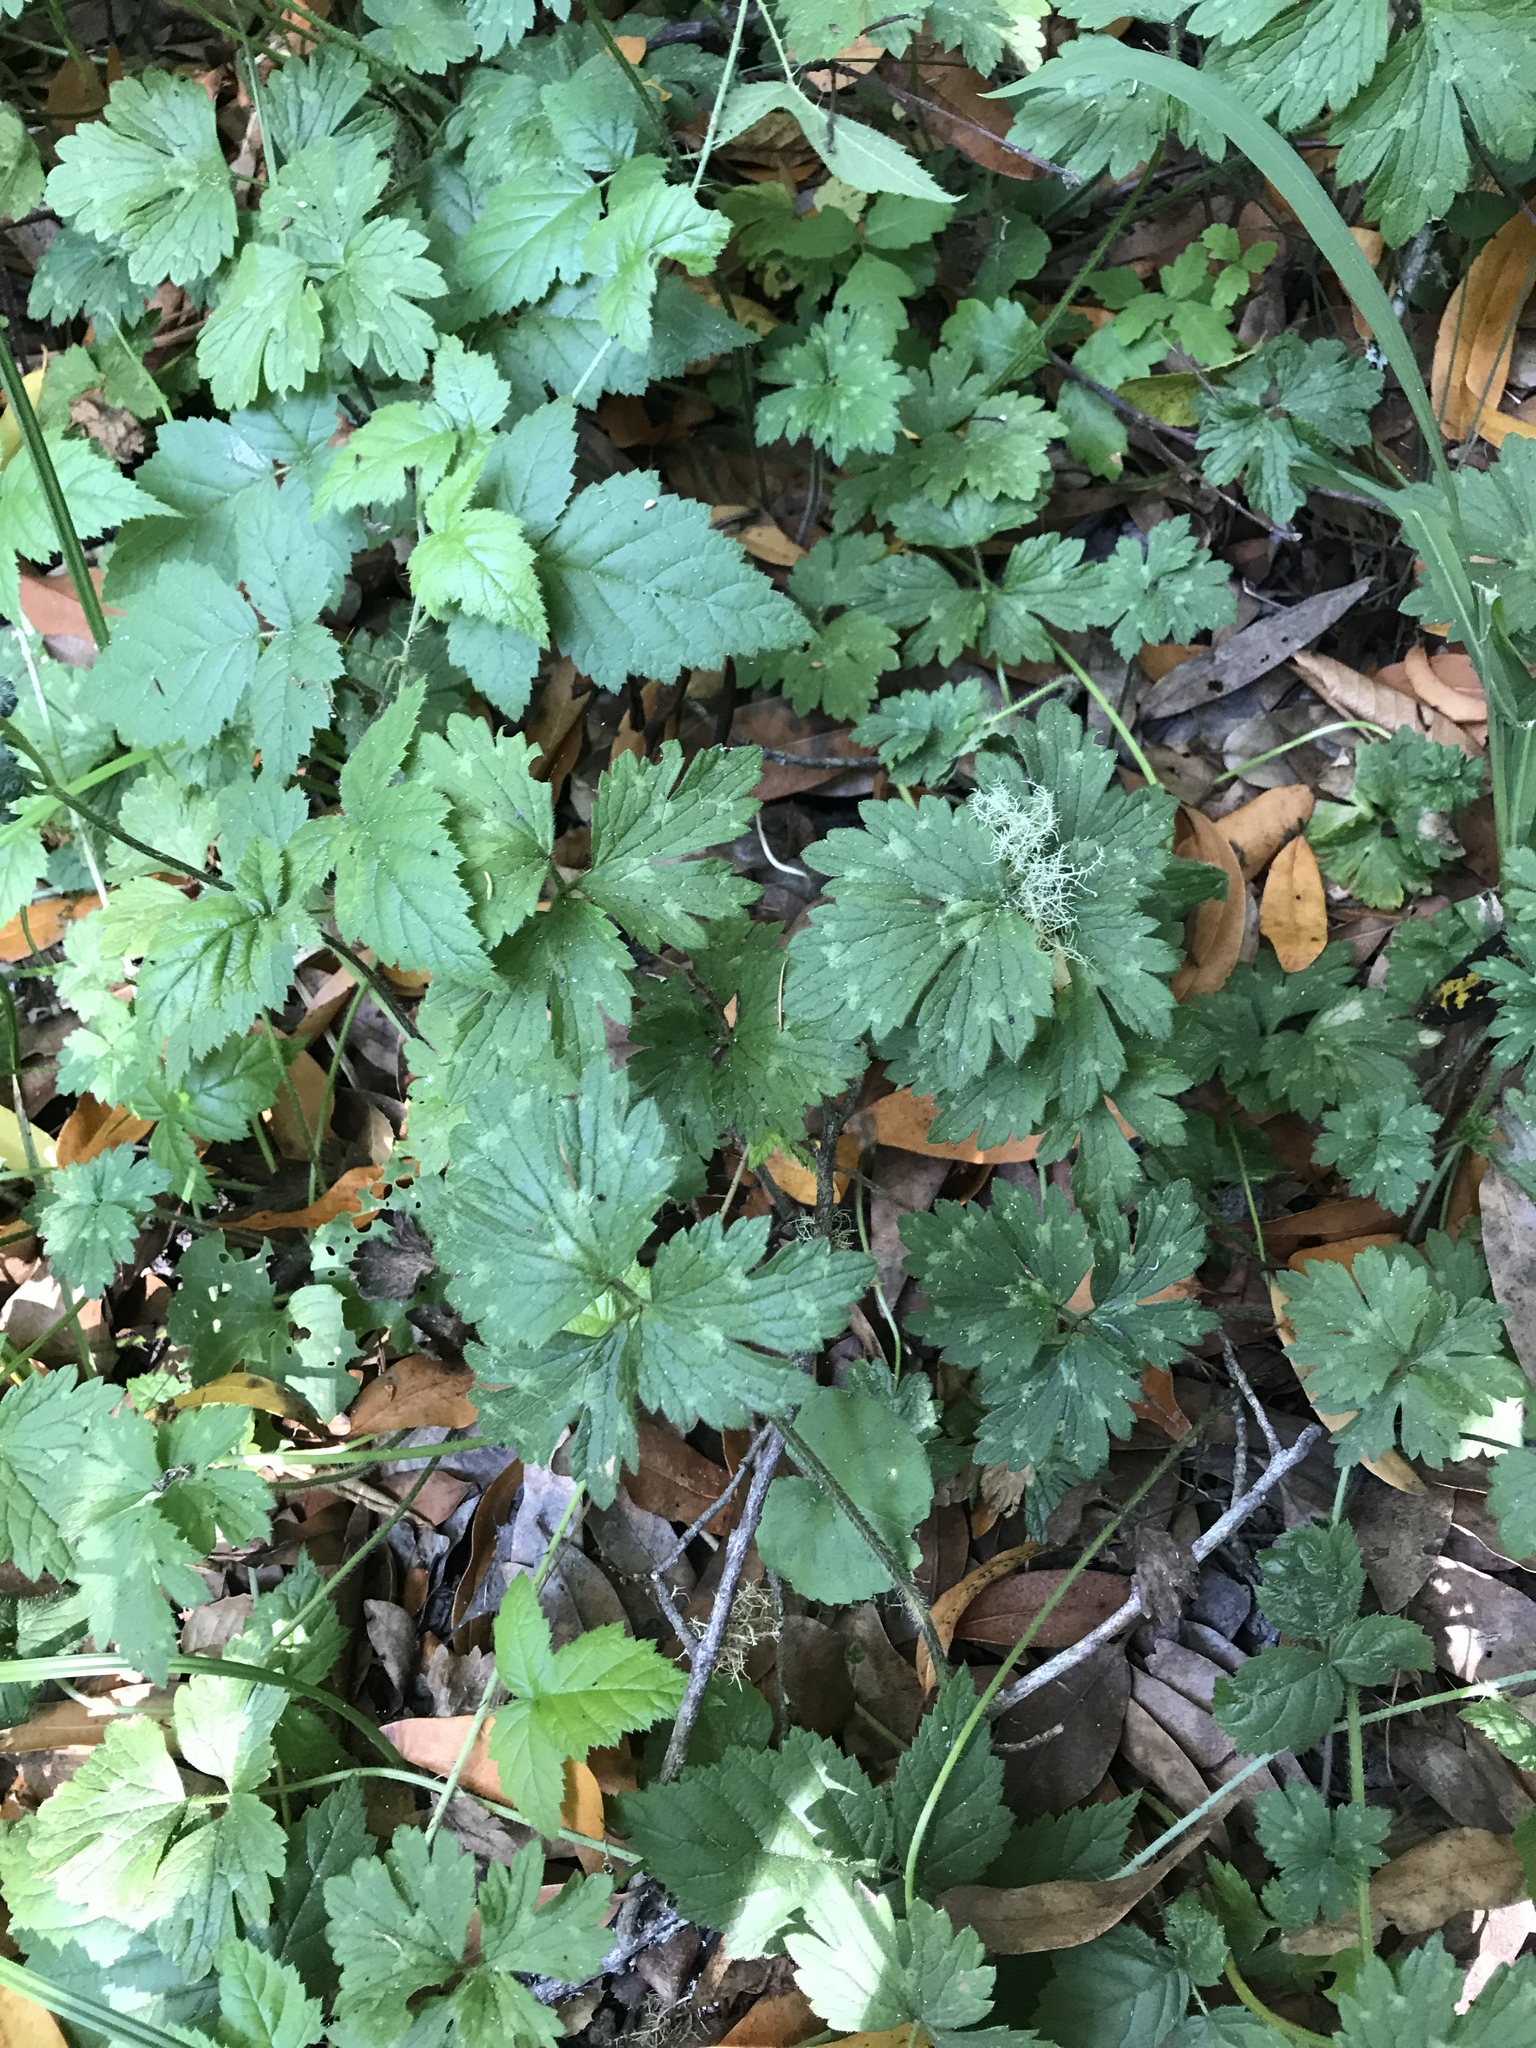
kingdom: Plantae
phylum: Tracheophyta
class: Magnoliopsida
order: Ranunculales
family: Ranunculaceae
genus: Ranunculus
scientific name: Ranunculus repens
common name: Creeping buttercup
